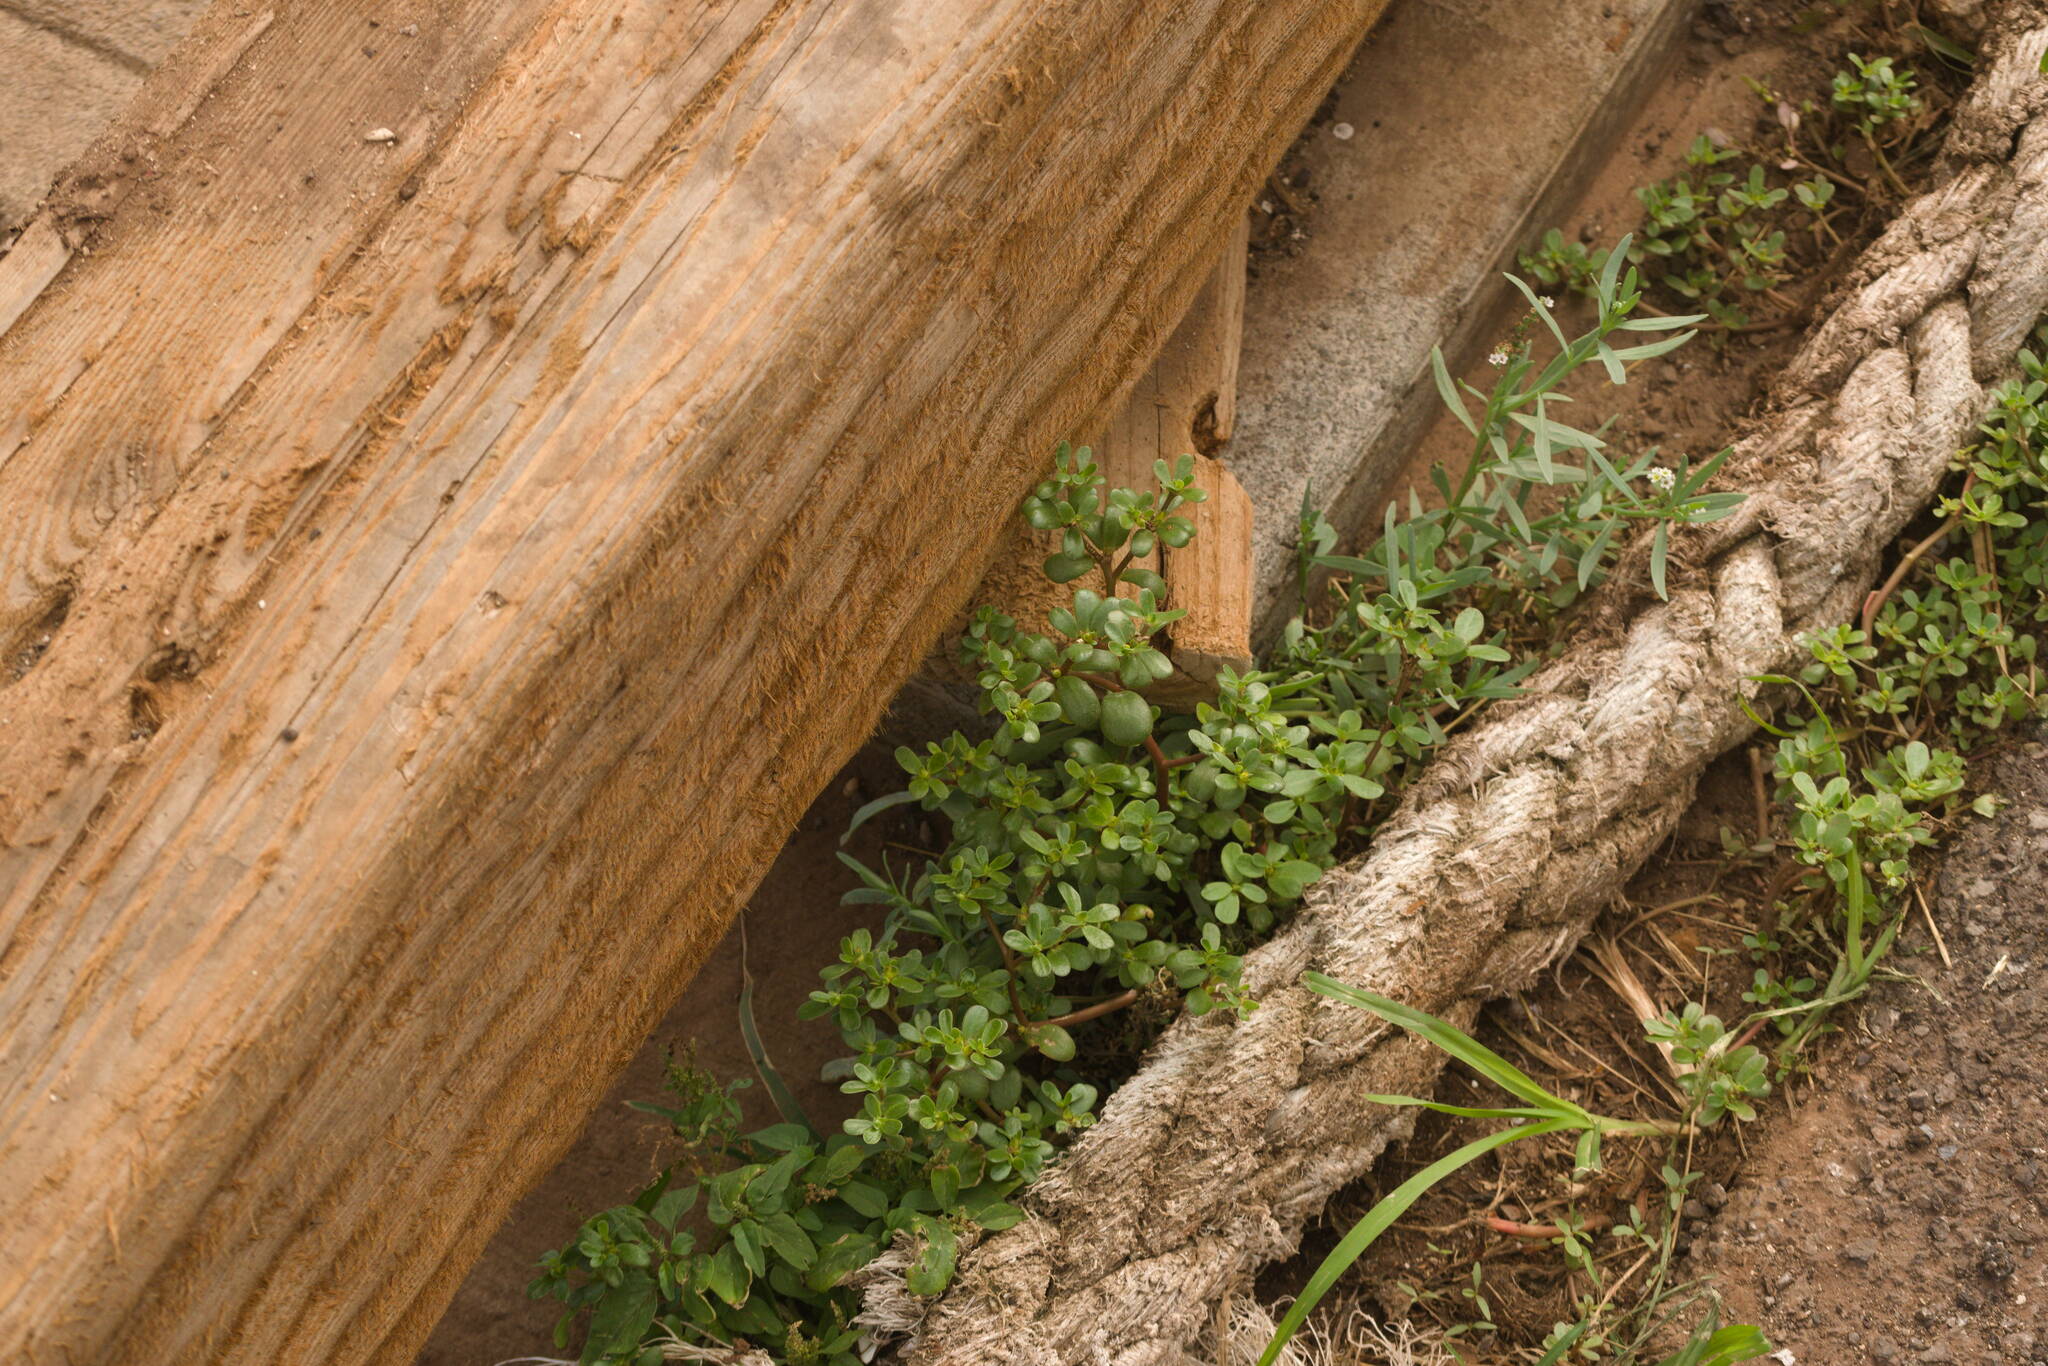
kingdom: Plantae
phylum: Tracheophyta
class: Magnoliopsida
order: Caryophyllales
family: Portulacaceae
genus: Portulaca
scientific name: Portulaca oleracea
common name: Common purslane
